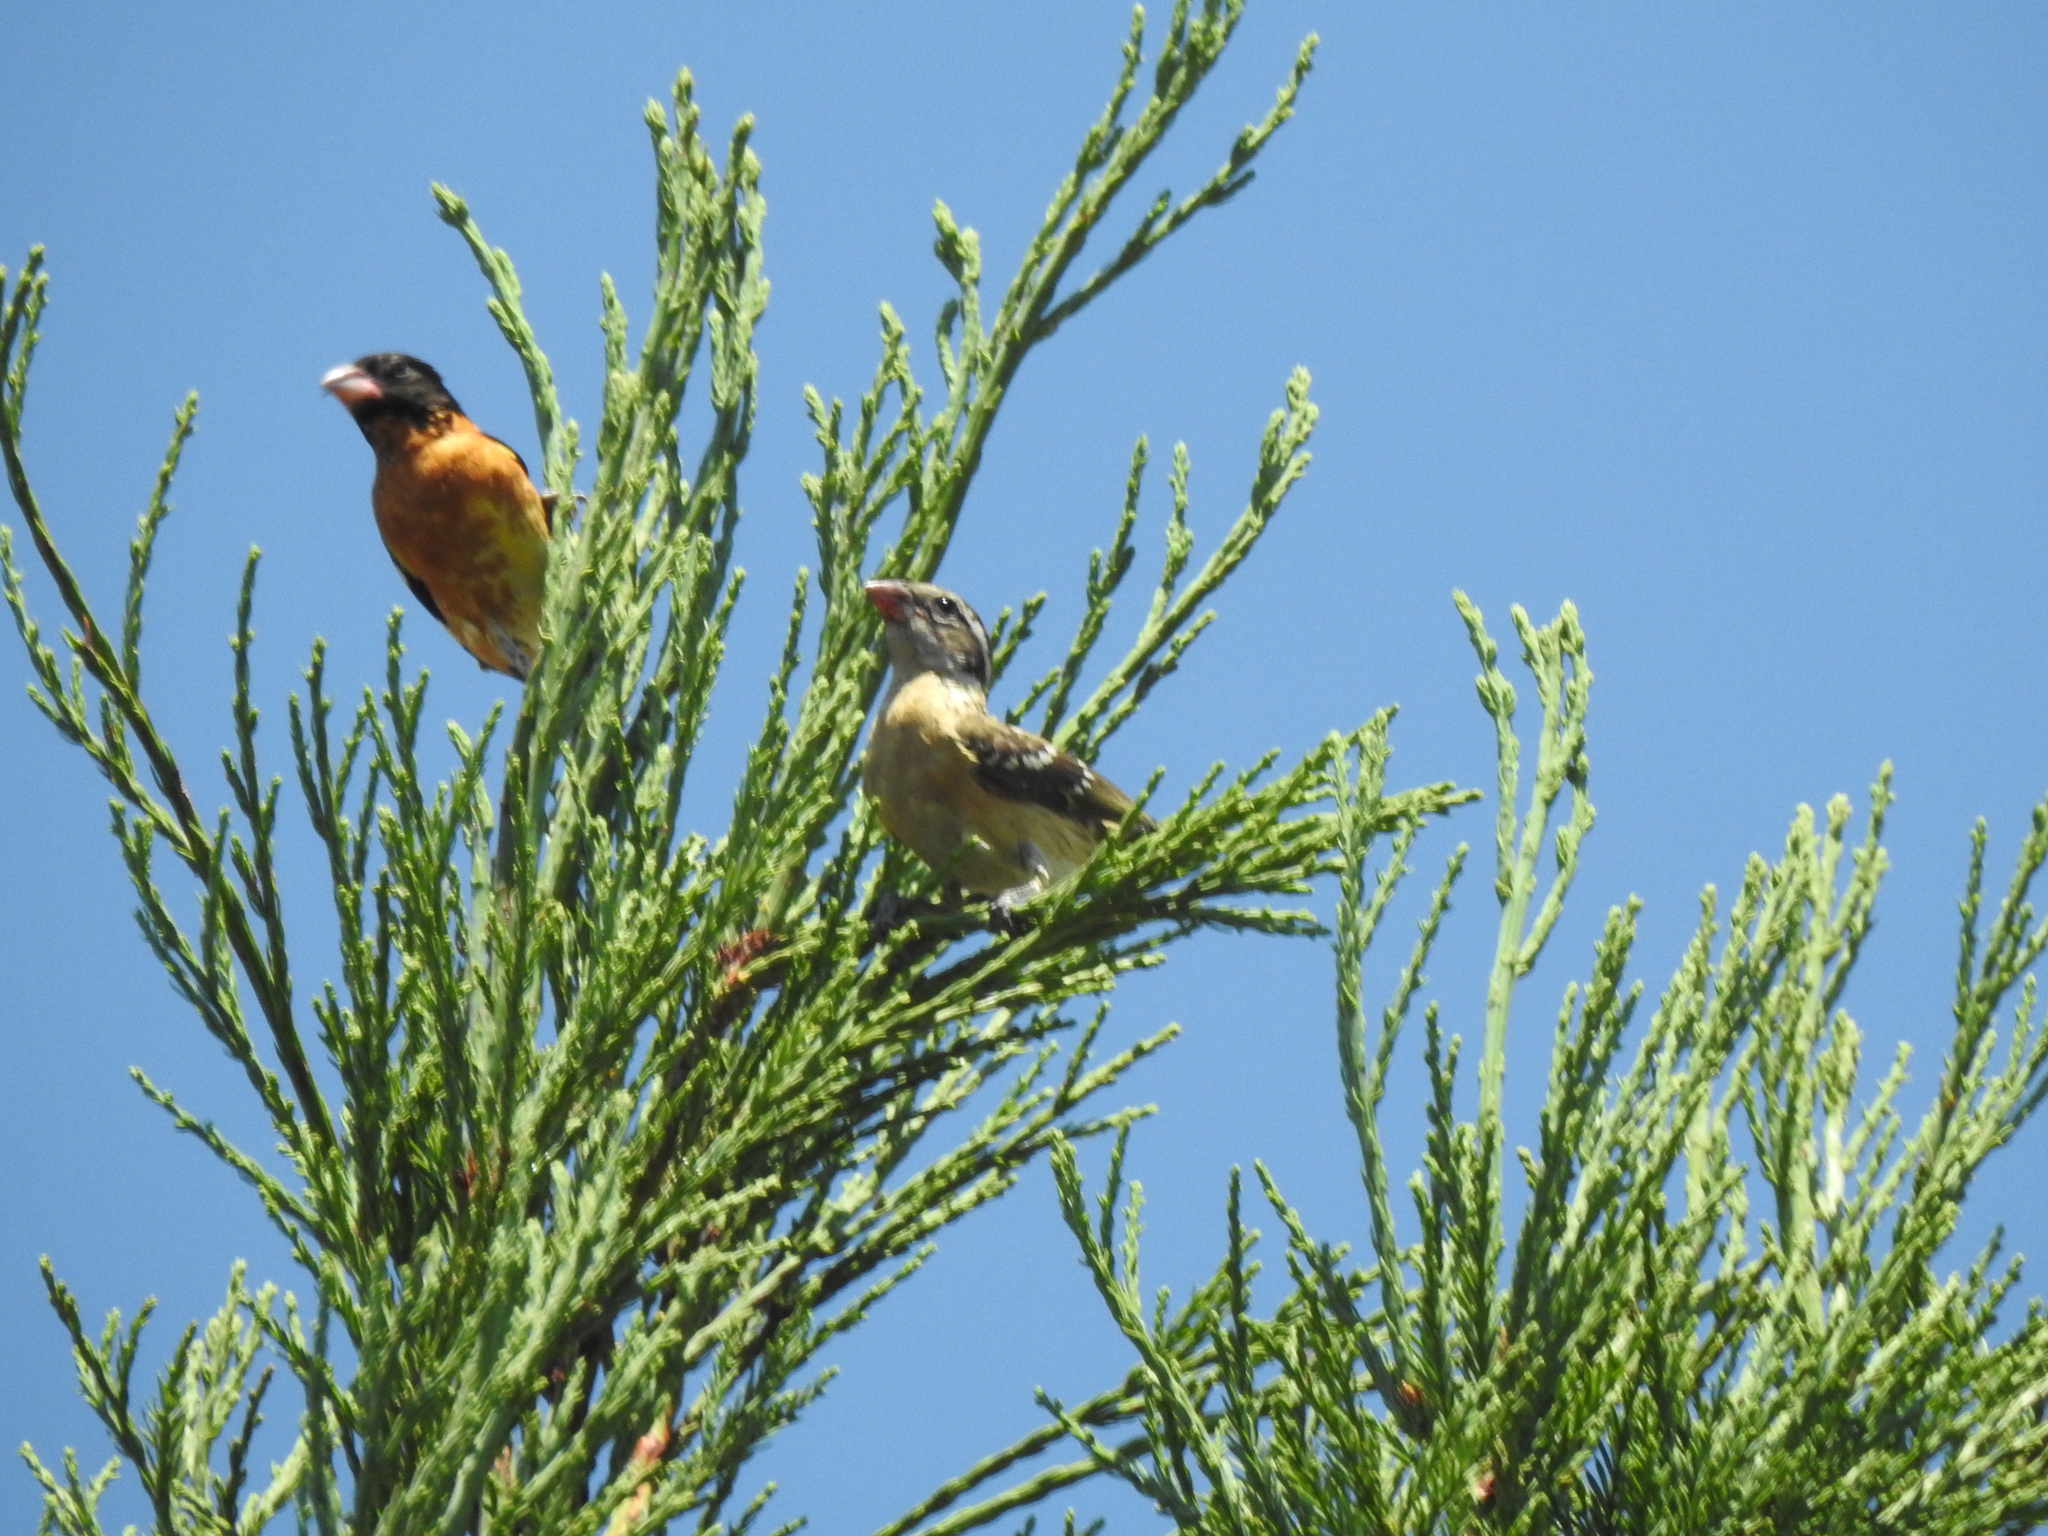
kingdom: Animalia
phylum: Chordata
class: Aves
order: Passeriformes
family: Cardinalidae
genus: Pheucticus
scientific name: Pheucticus melanocephalus
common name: Black-headed grosbeak
